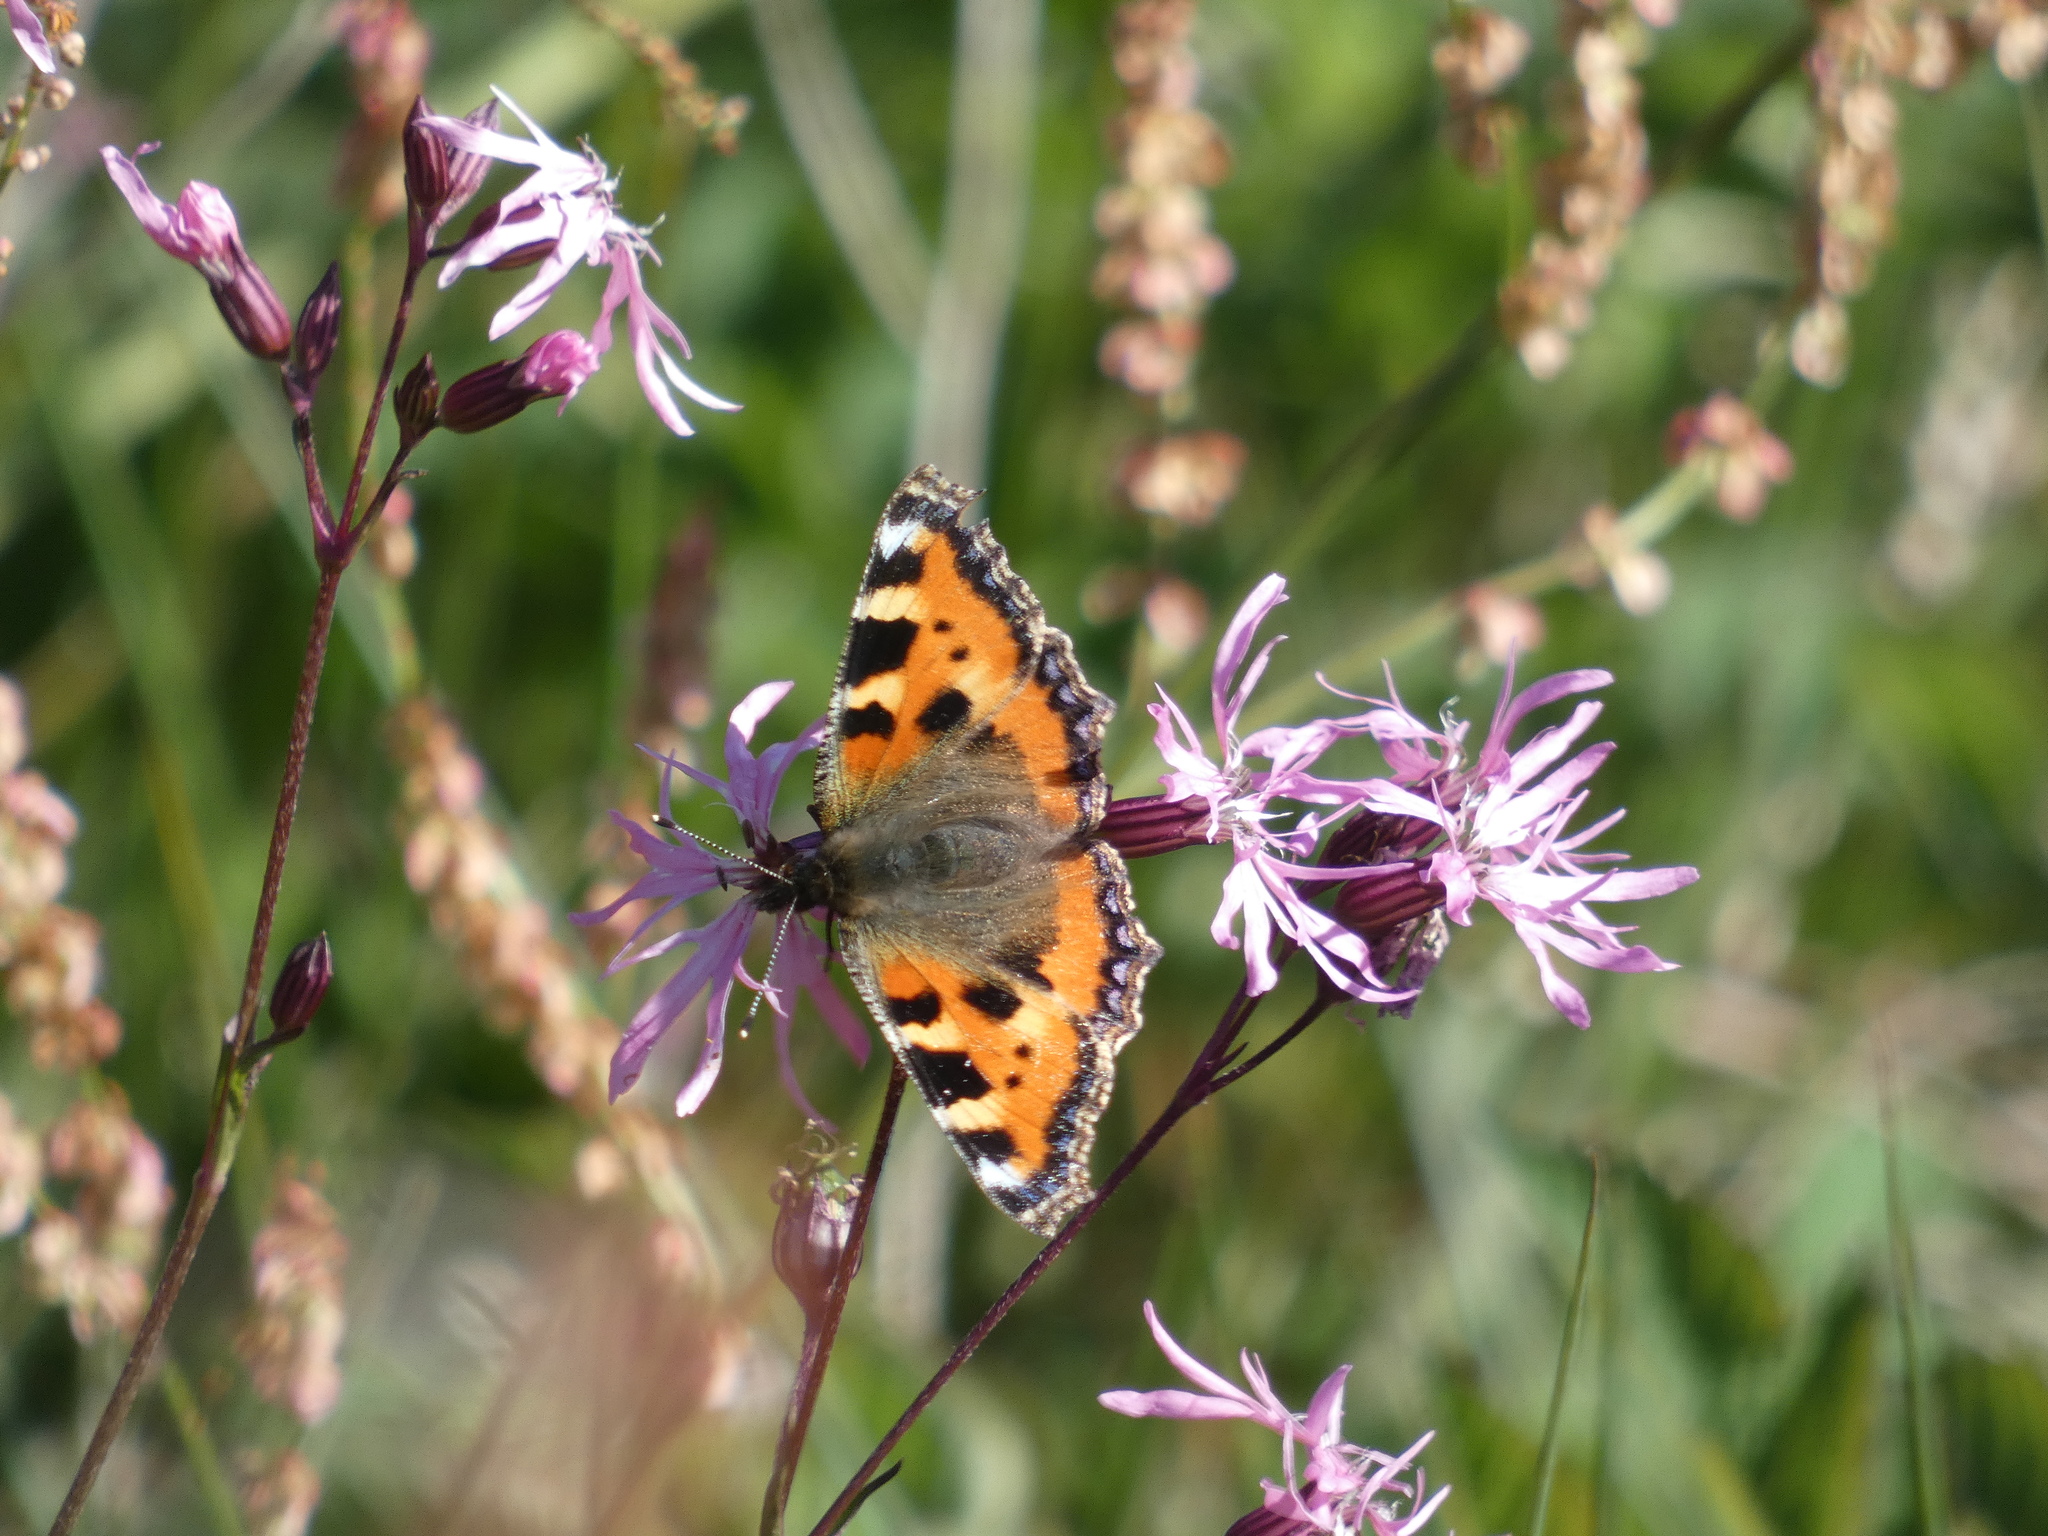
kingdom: Animalia
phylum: Arthropoda
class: Insecta
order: Lepidoptera
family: Nymphalidae
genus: Aglais
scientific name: Aglais urticae
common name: Small tortoiseshell
